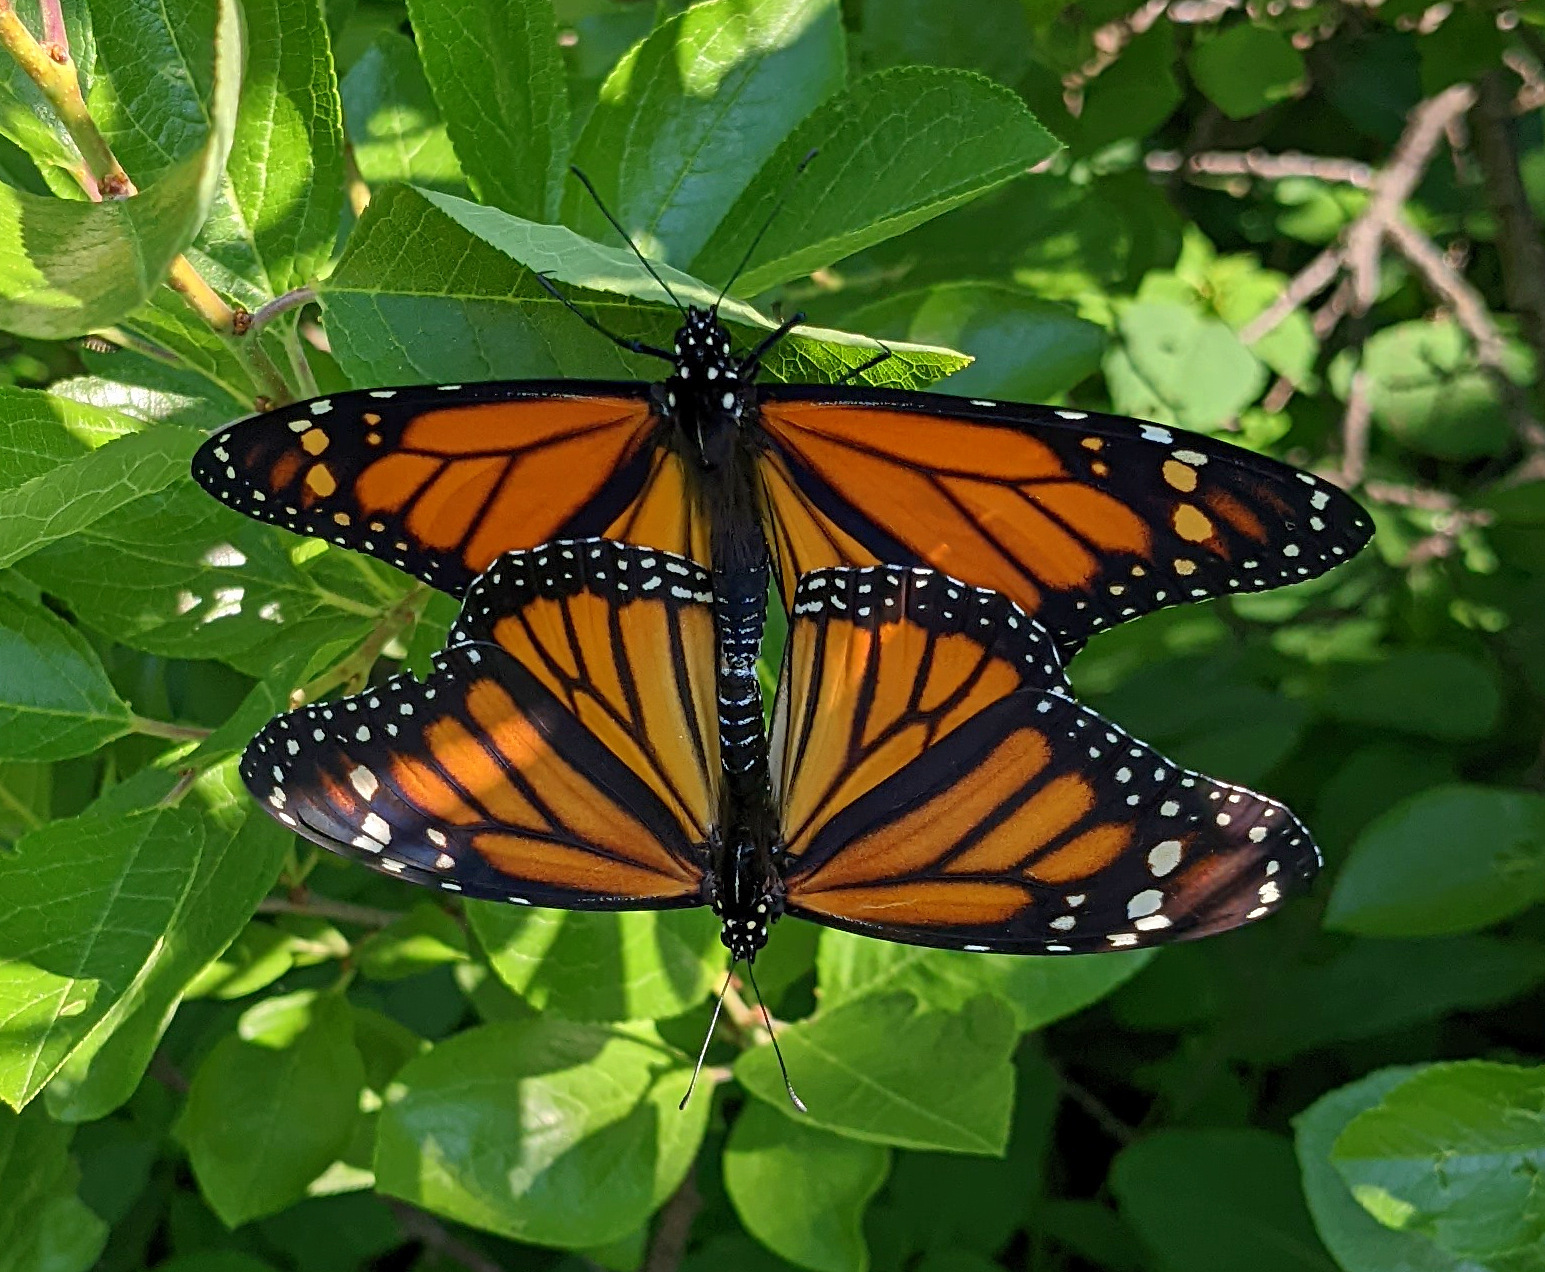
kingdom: Animalia
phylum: Arthropoda
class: Insecta
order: Lepidoptera
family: Nymphalidae
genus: Danaus
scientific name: Danaus plexippus
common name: Monarch
